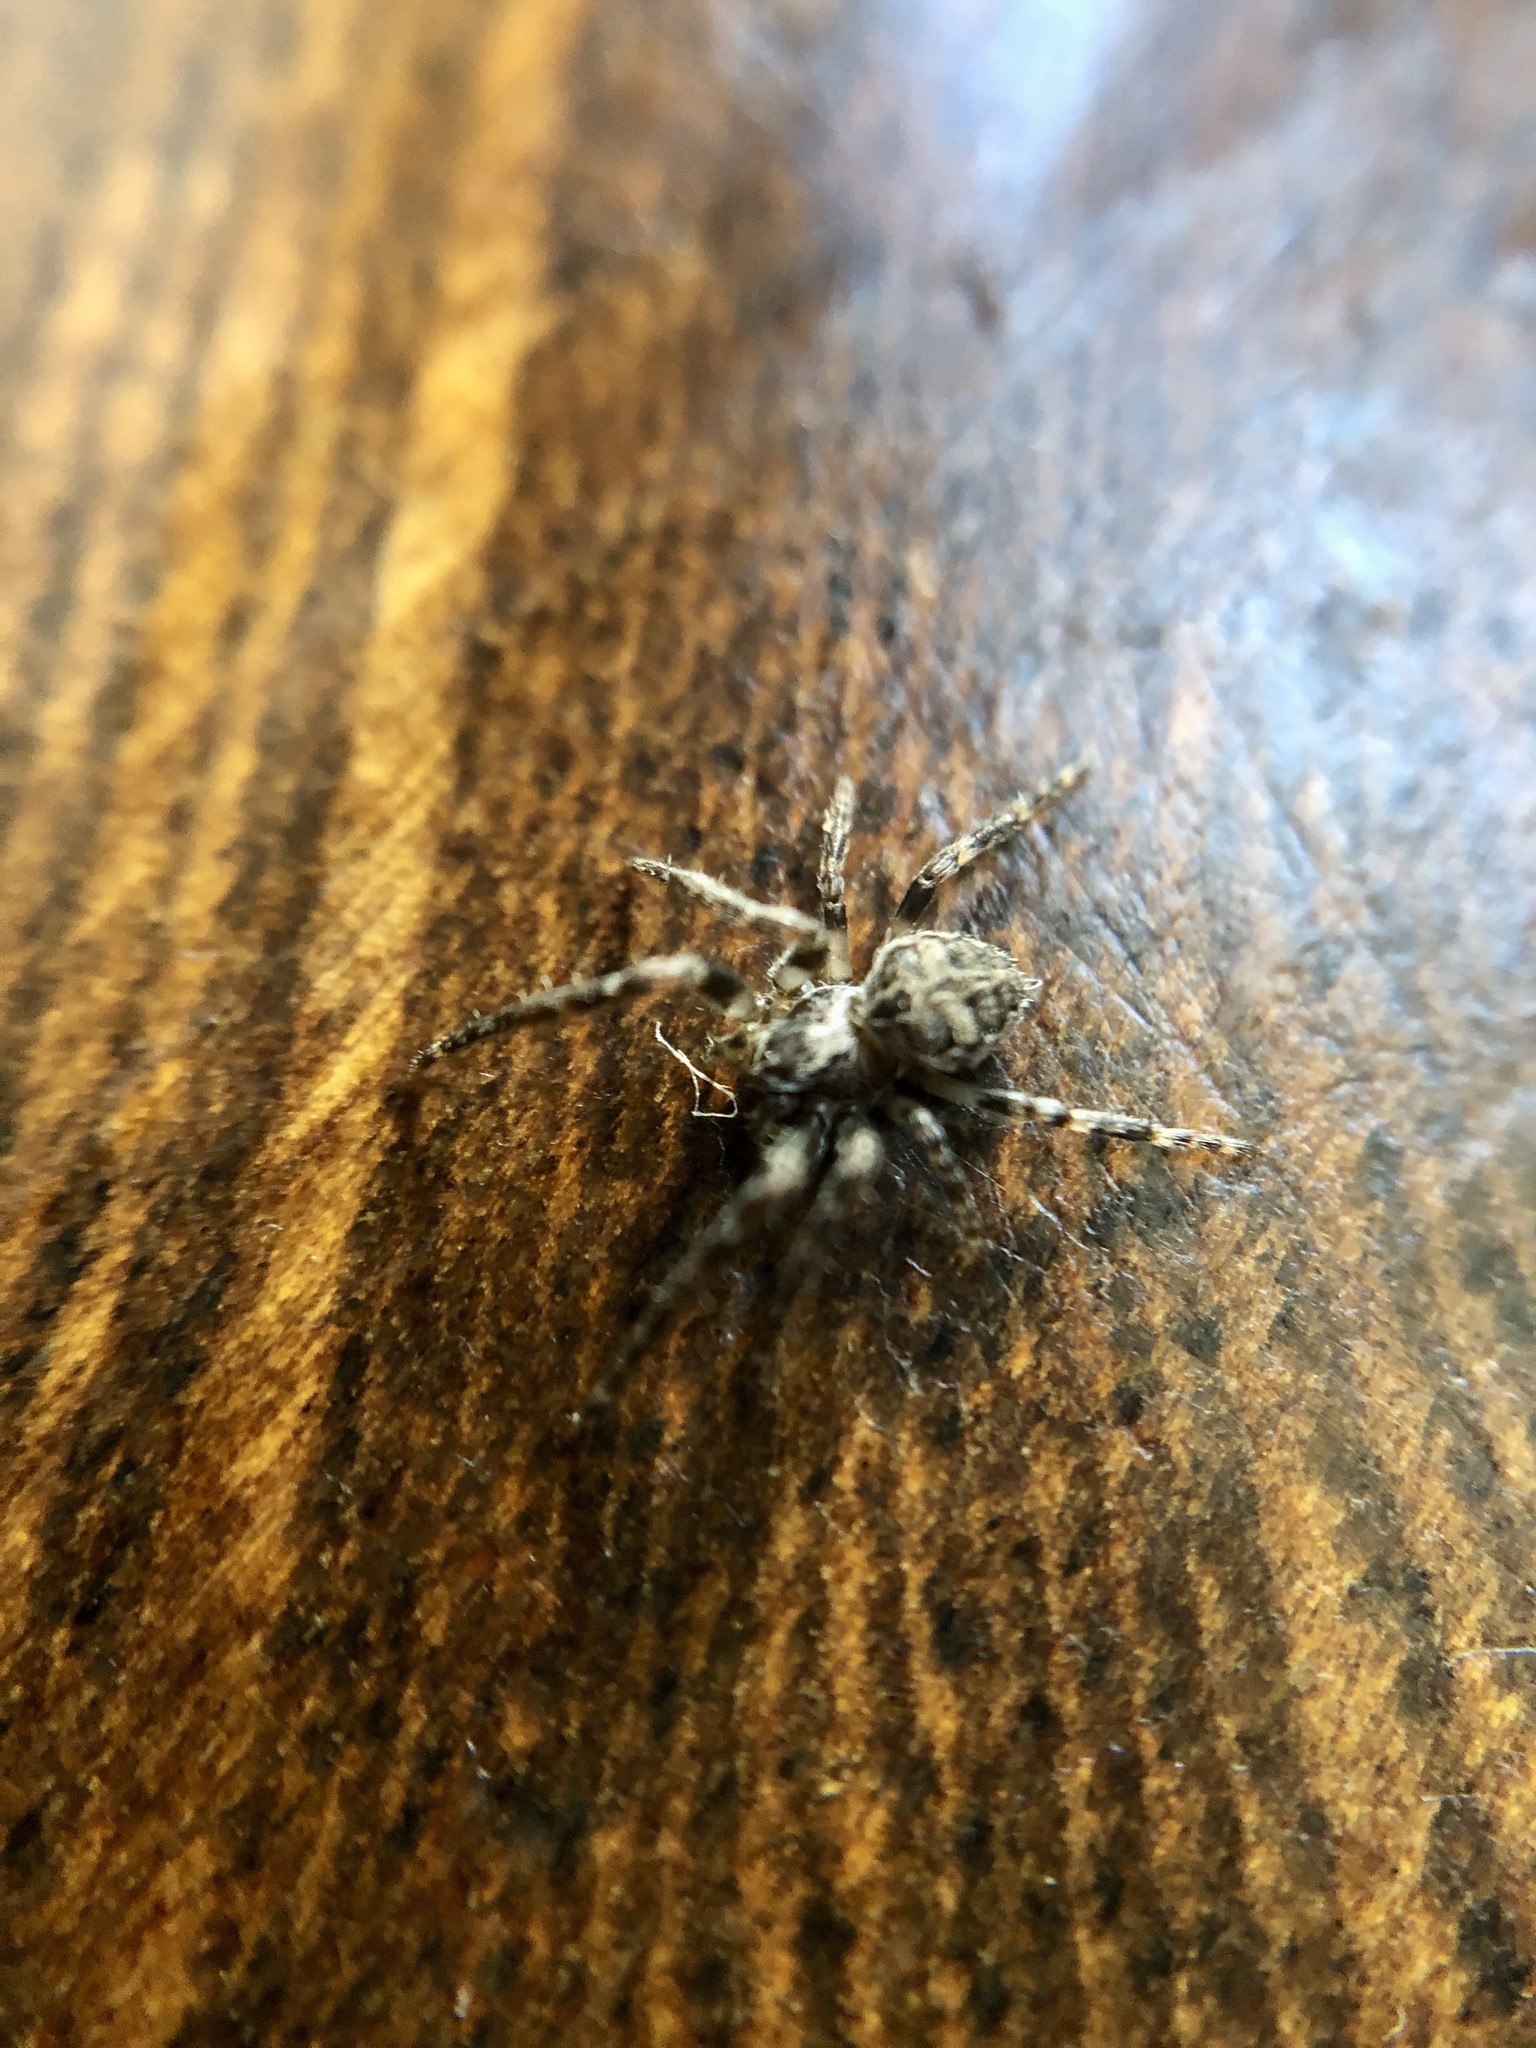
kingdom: Animalia
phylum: Arthropoda
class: Arachnida
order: Araneae
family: Araneidae
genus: Larinioides
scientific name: Larinioides sclopetarius
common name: Bridge orbweaver
